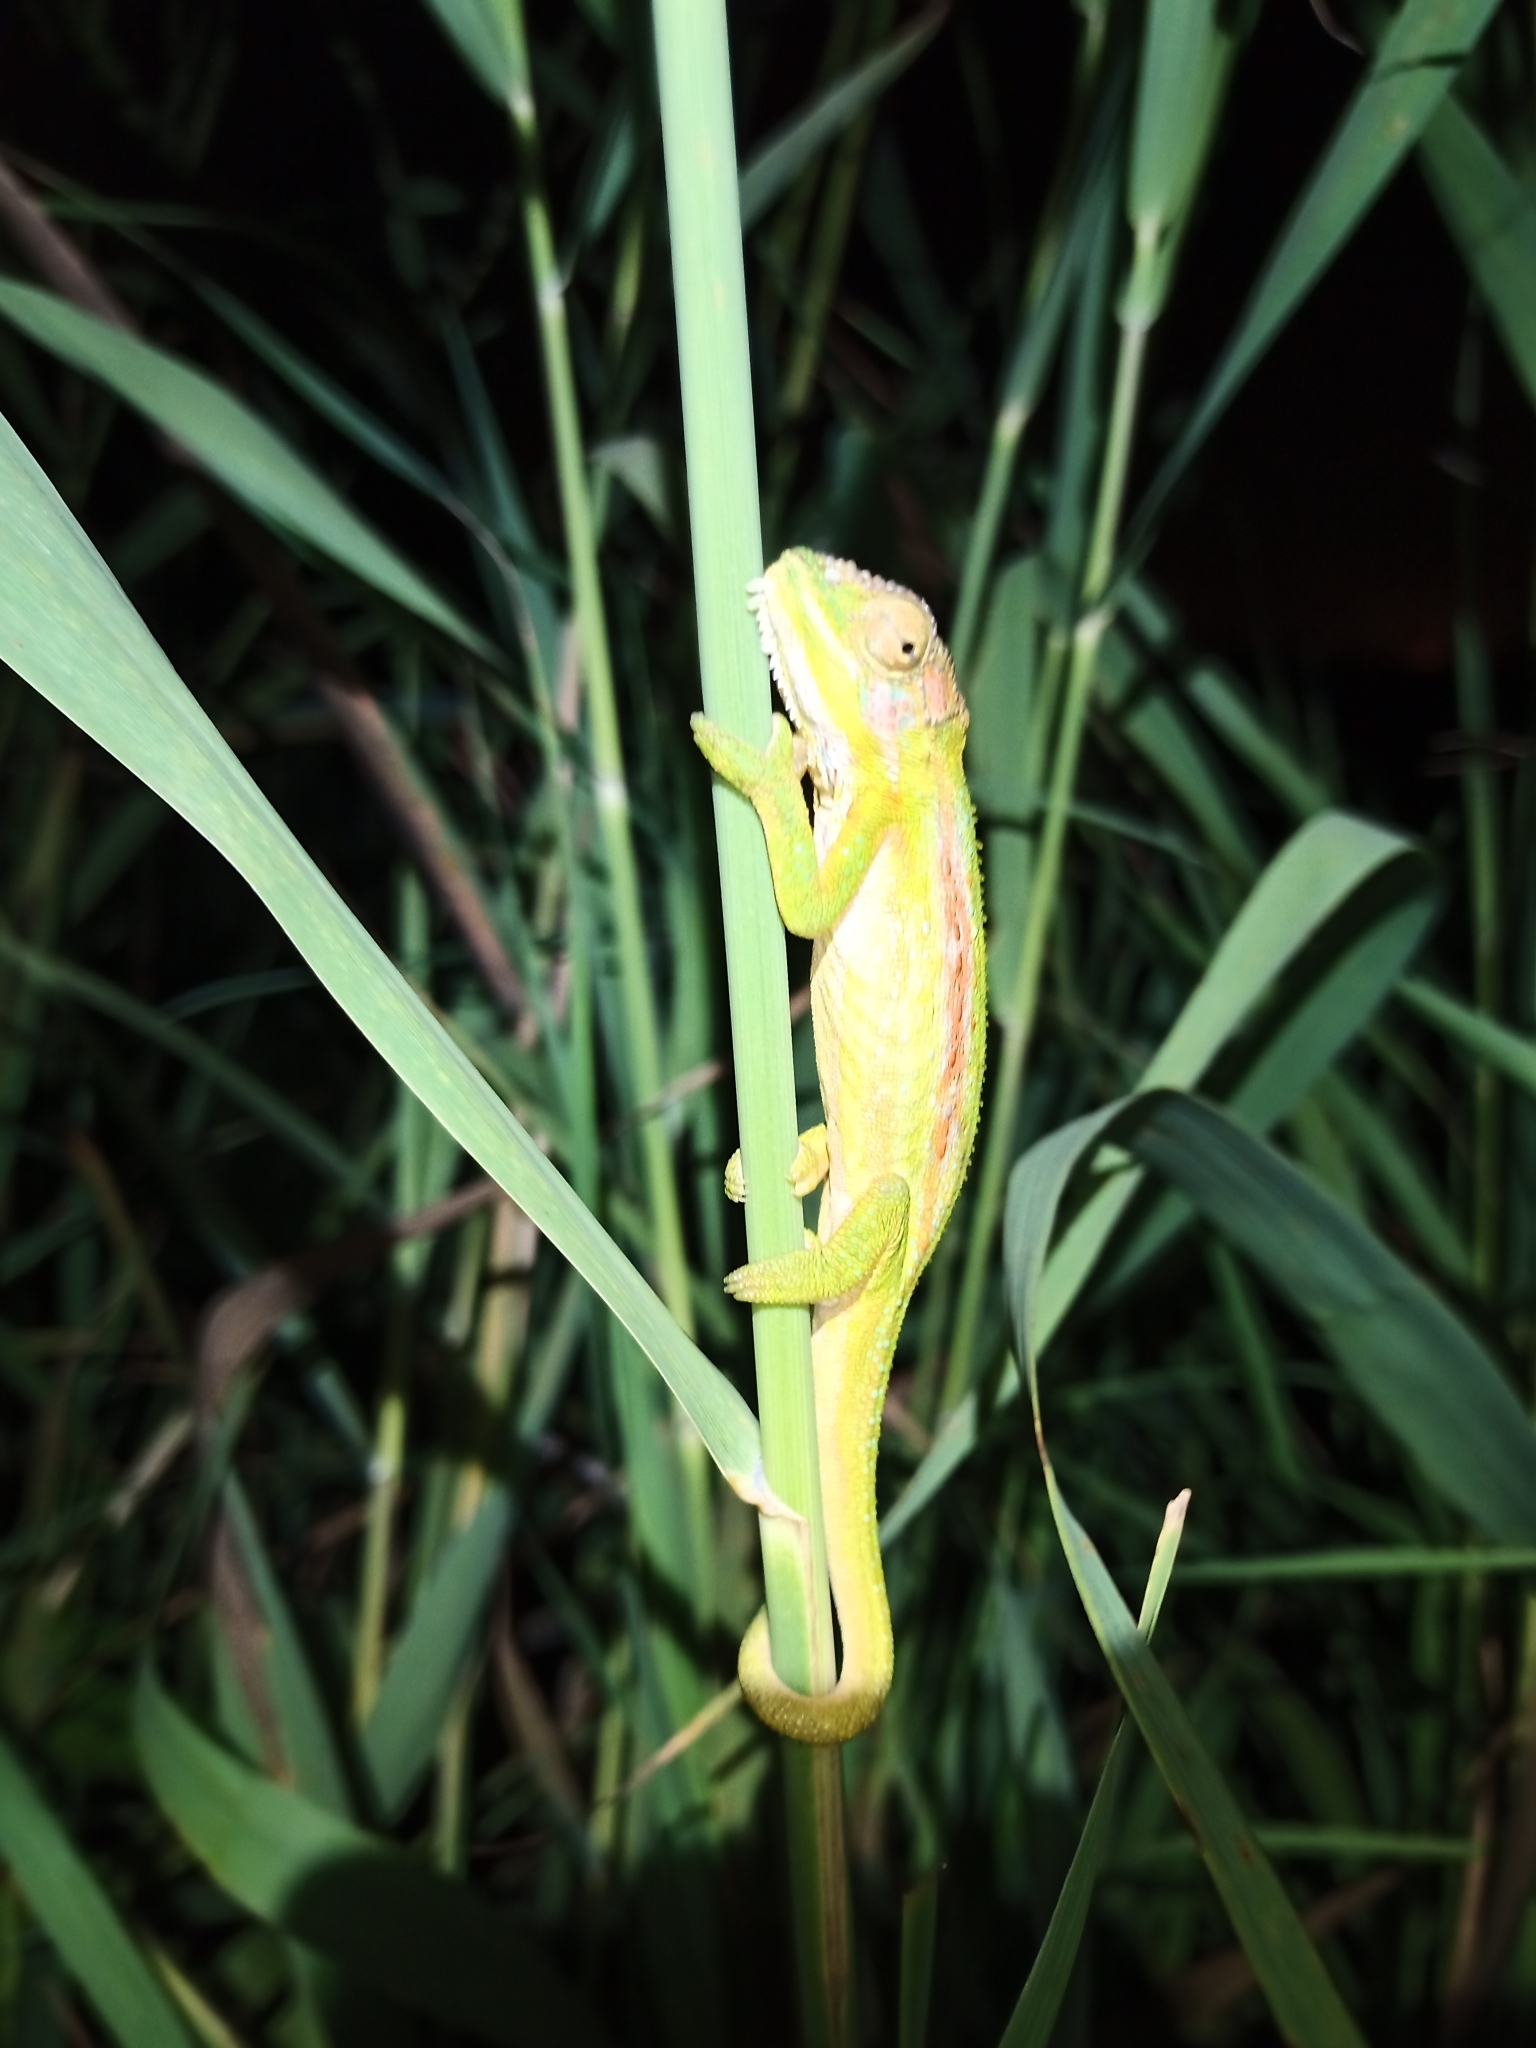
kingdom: Animalia
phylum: Chordata
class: Squamata
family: Chamaeleonidae
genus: Bradypodion
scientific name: Bradypodion pumilum
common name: Cape dwarf chameleon
